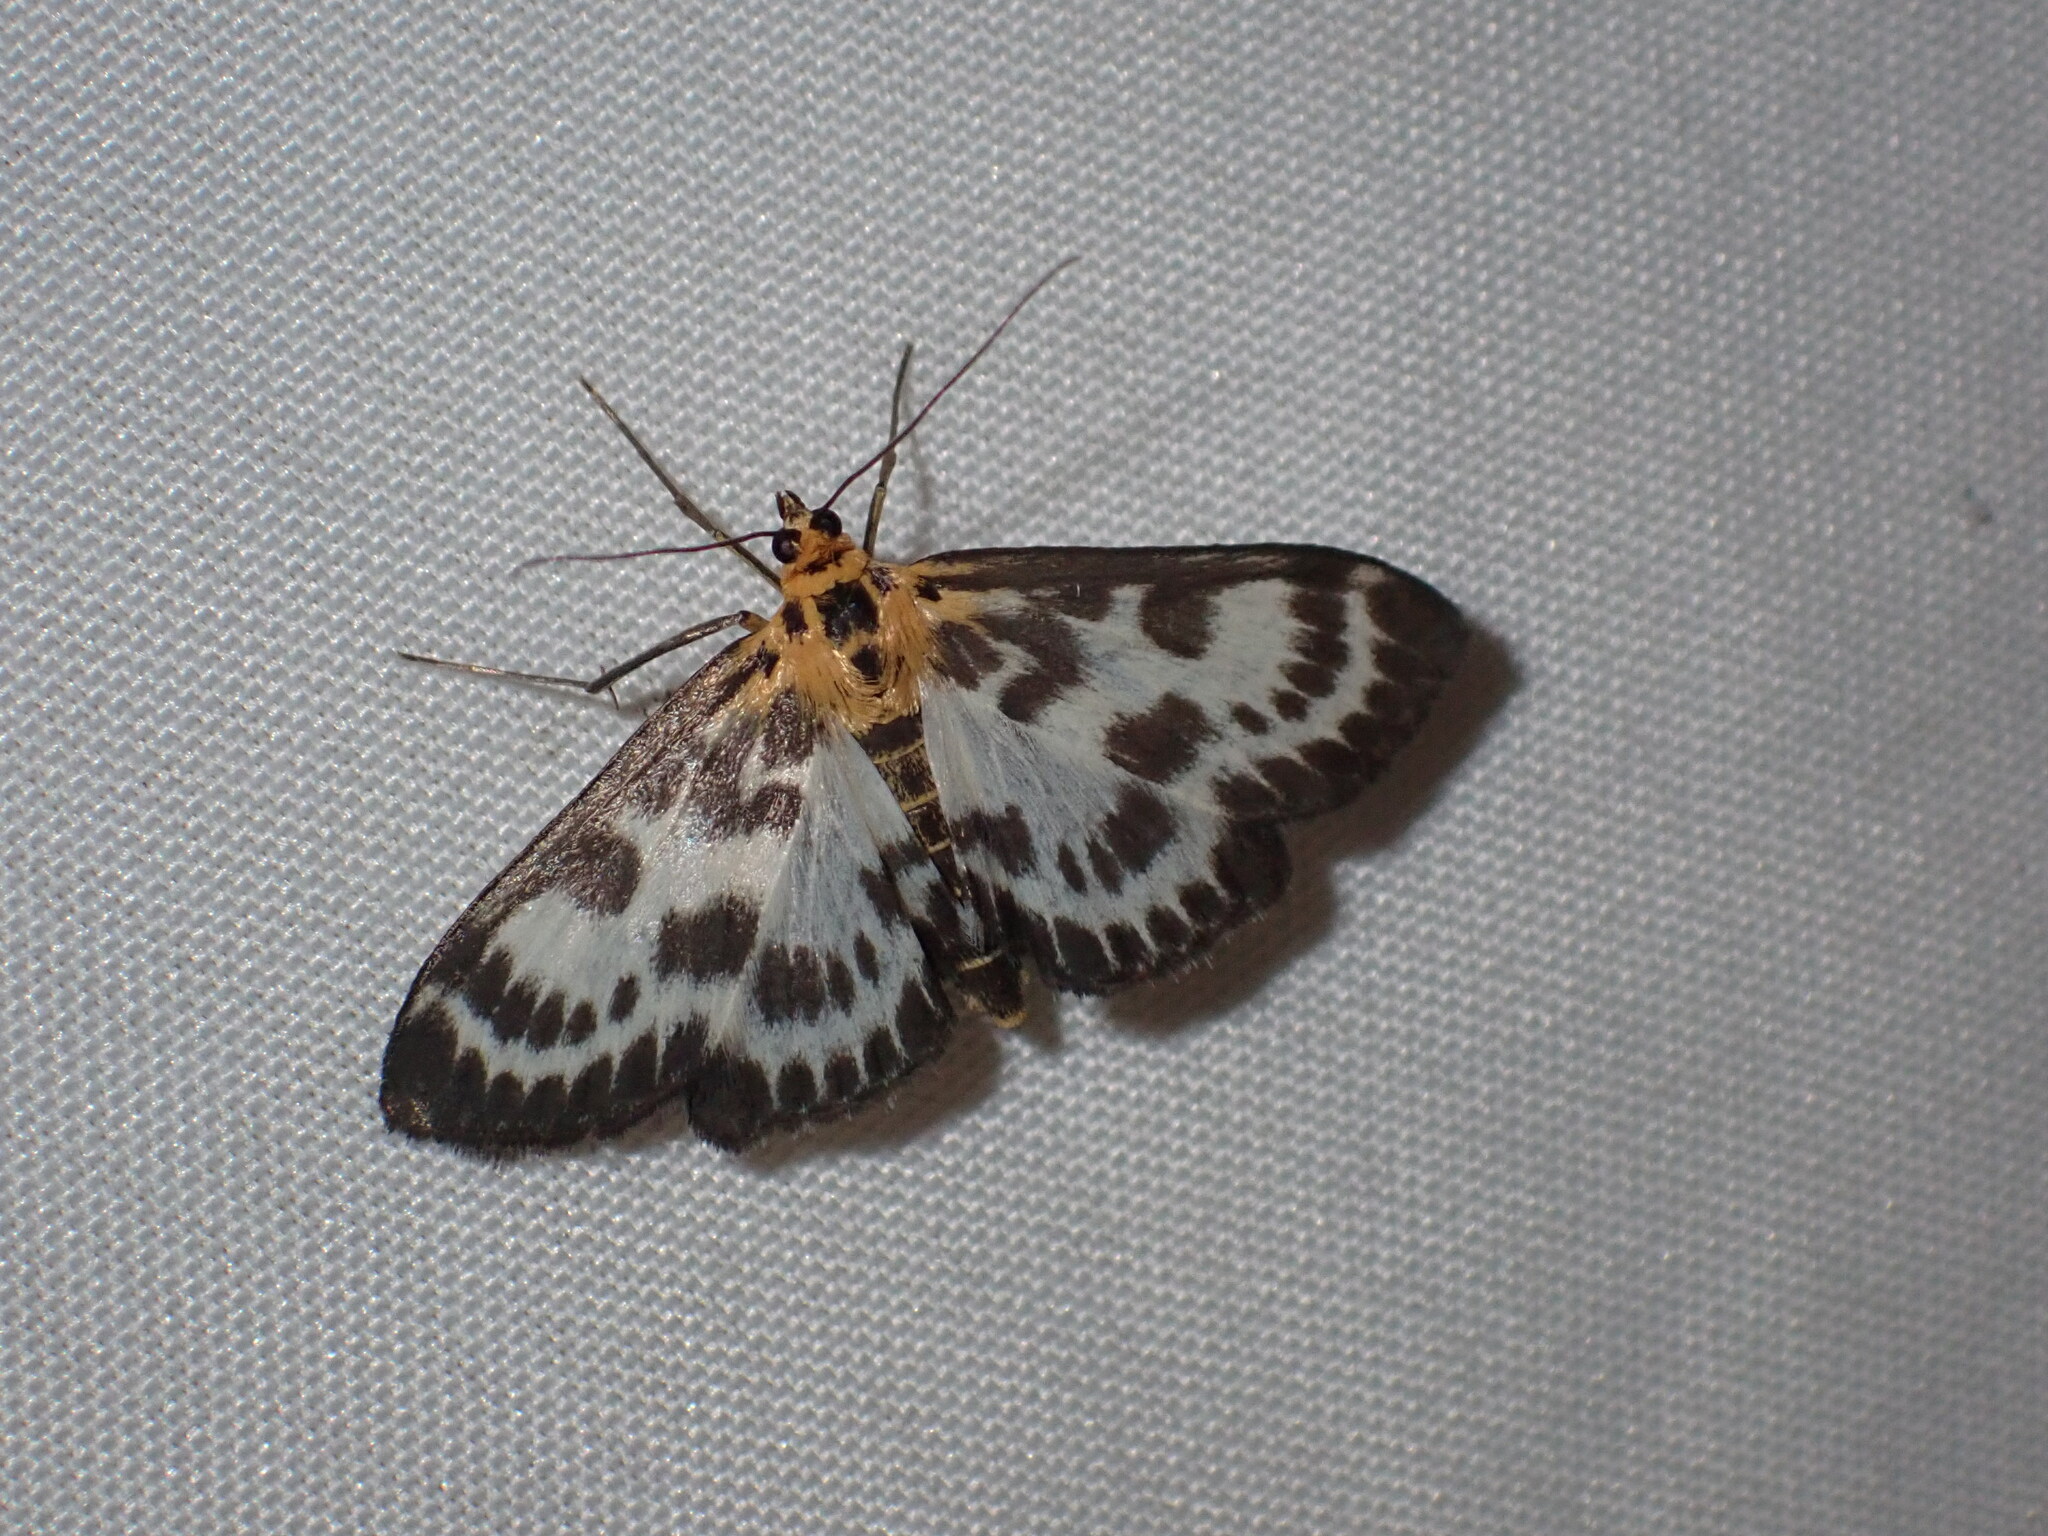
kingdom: Animalia
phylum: Arthropoda
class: Insecta
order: Lepidoptera
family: Crambidae
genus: Anania
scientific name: Anania hortulata
